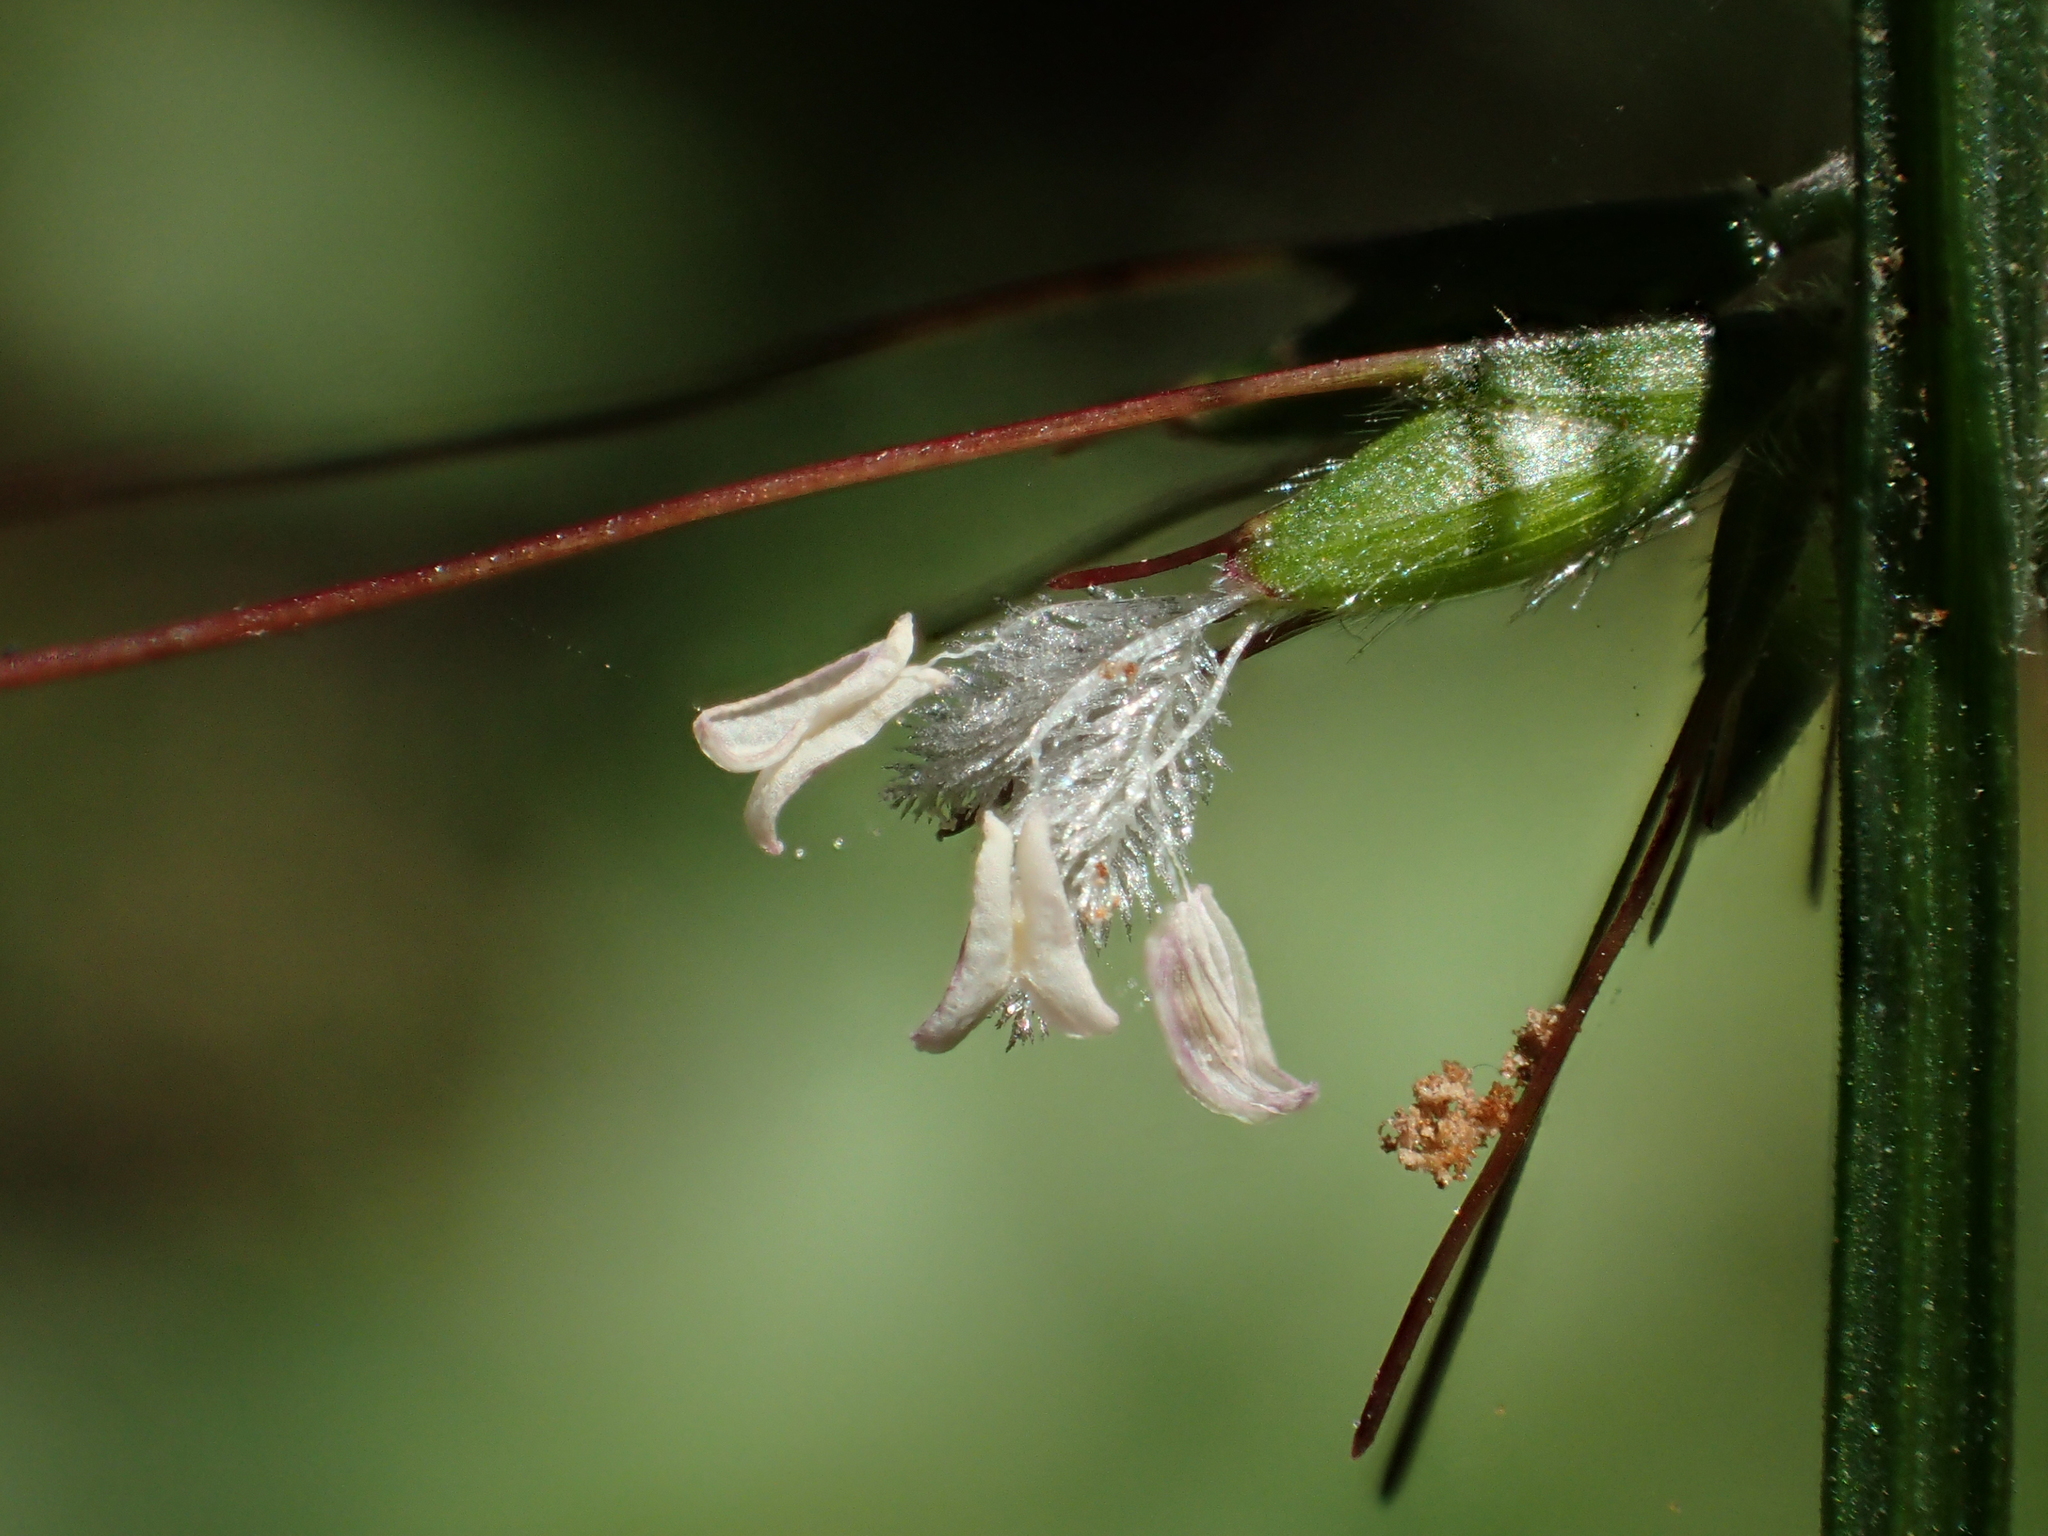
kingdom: Plantae
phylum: Tracheophyta
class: Liliopsida
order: Poales
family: Poaceae
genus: Oplismenus
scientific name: Oplismenus hirtellus
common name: Basketgrass
